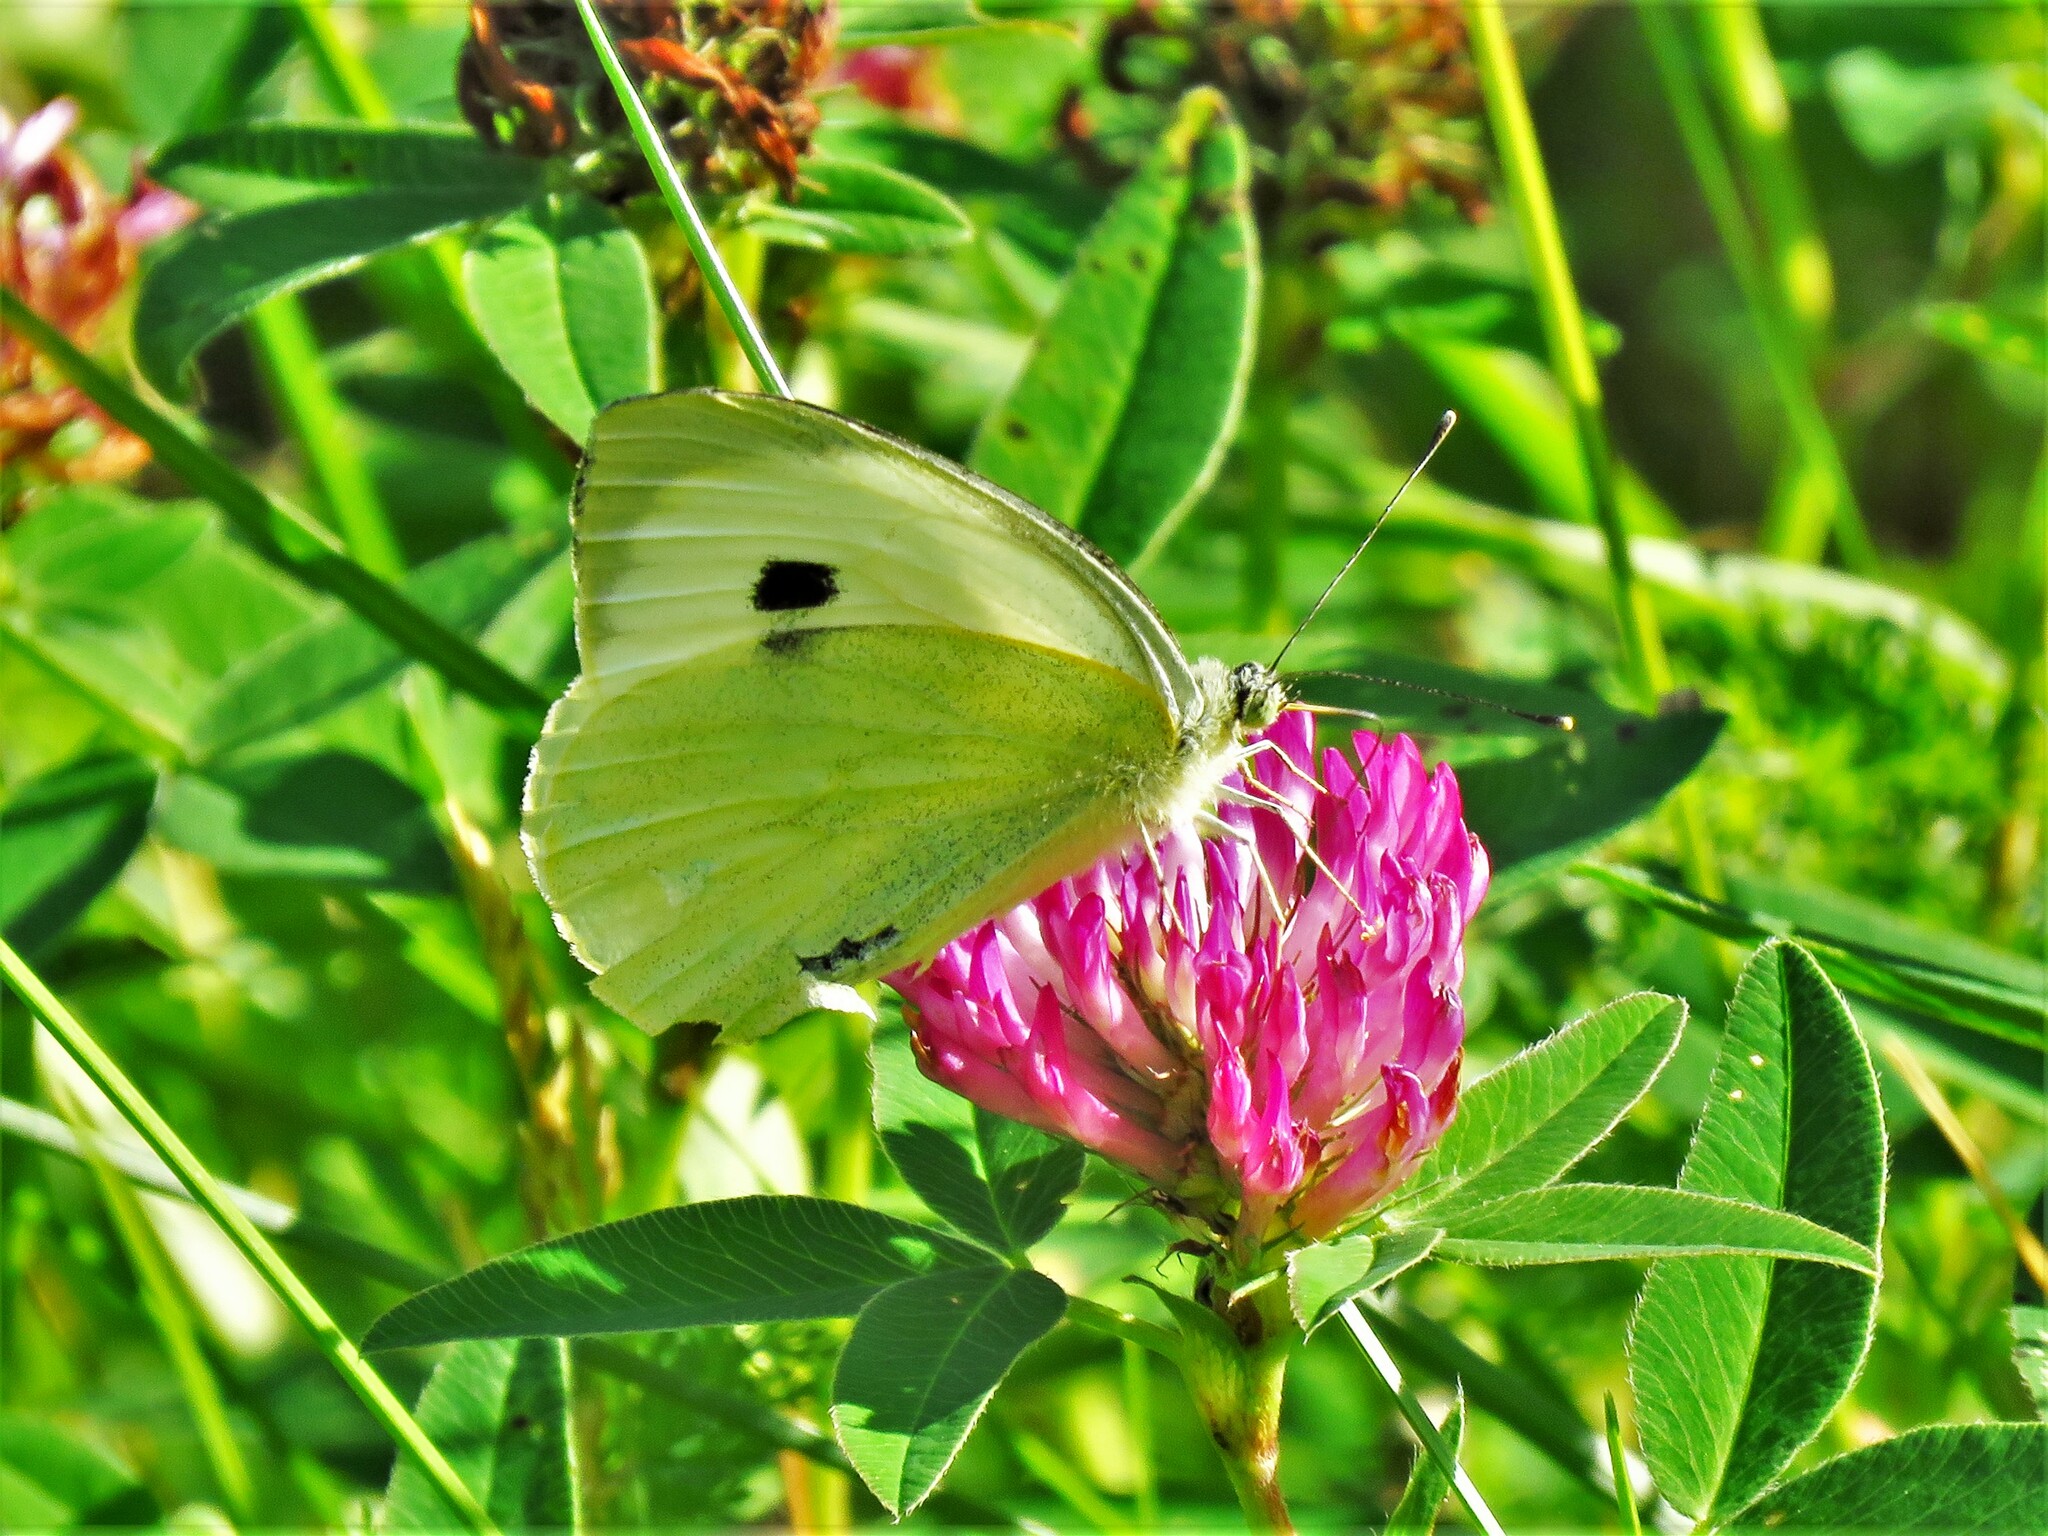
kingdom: Animalia
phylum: Arthropoda
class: Insecta
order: Lepidoptera
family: Pieridae
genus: Pieris
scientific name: Pieris brassicae
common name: Large white
